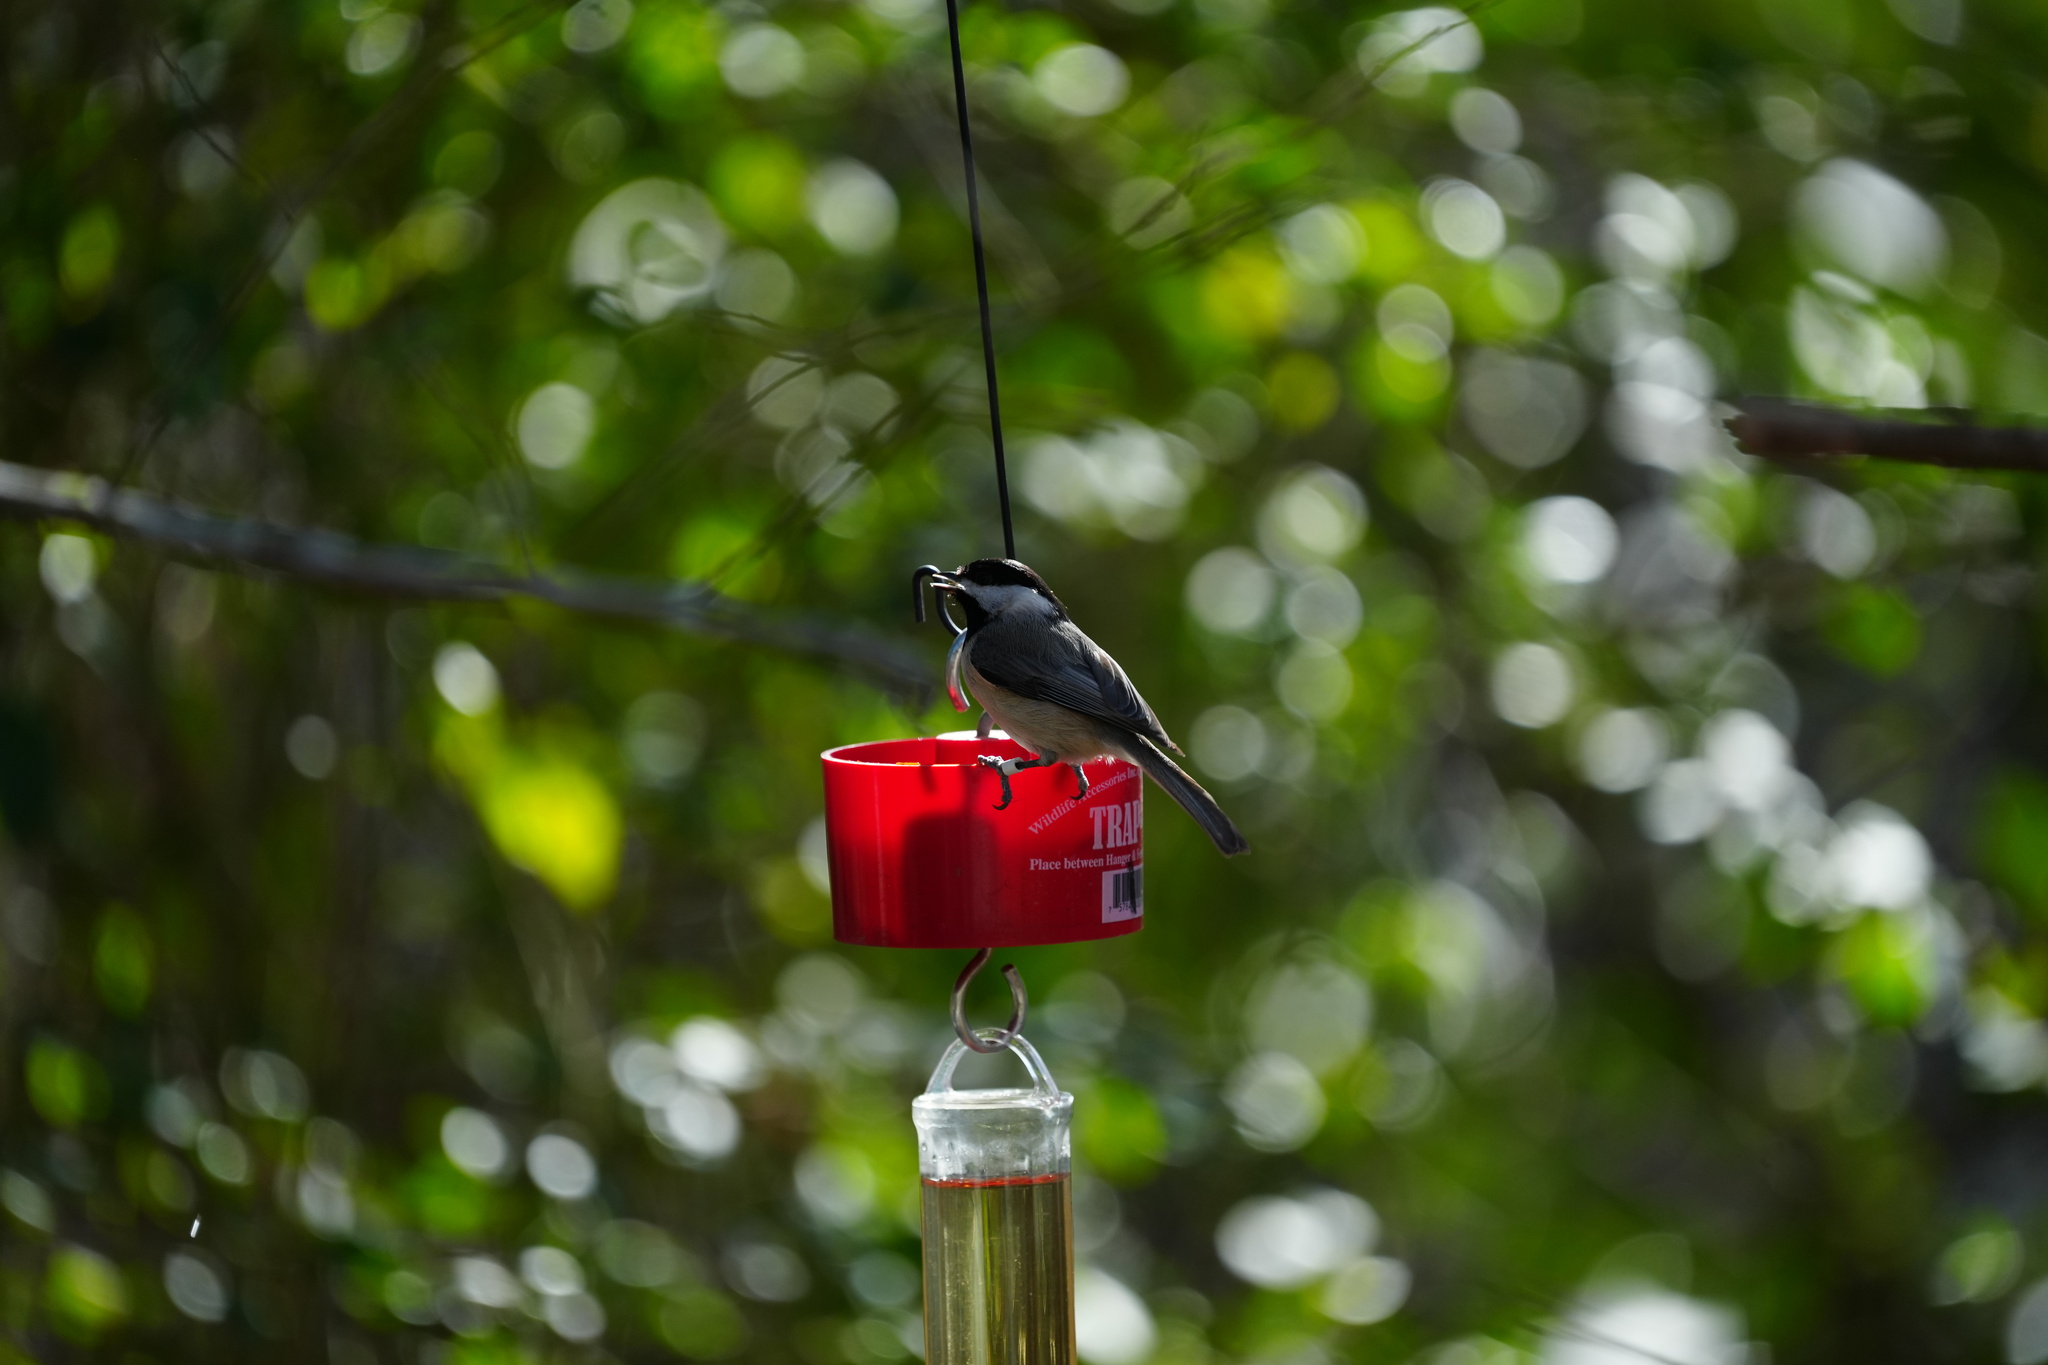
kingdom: Animalia
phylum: Chordata
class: Aves
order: Passeriformes
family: Paridae
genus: Poecile
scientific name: Poecile carolinensis
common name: Carolina chickadee
